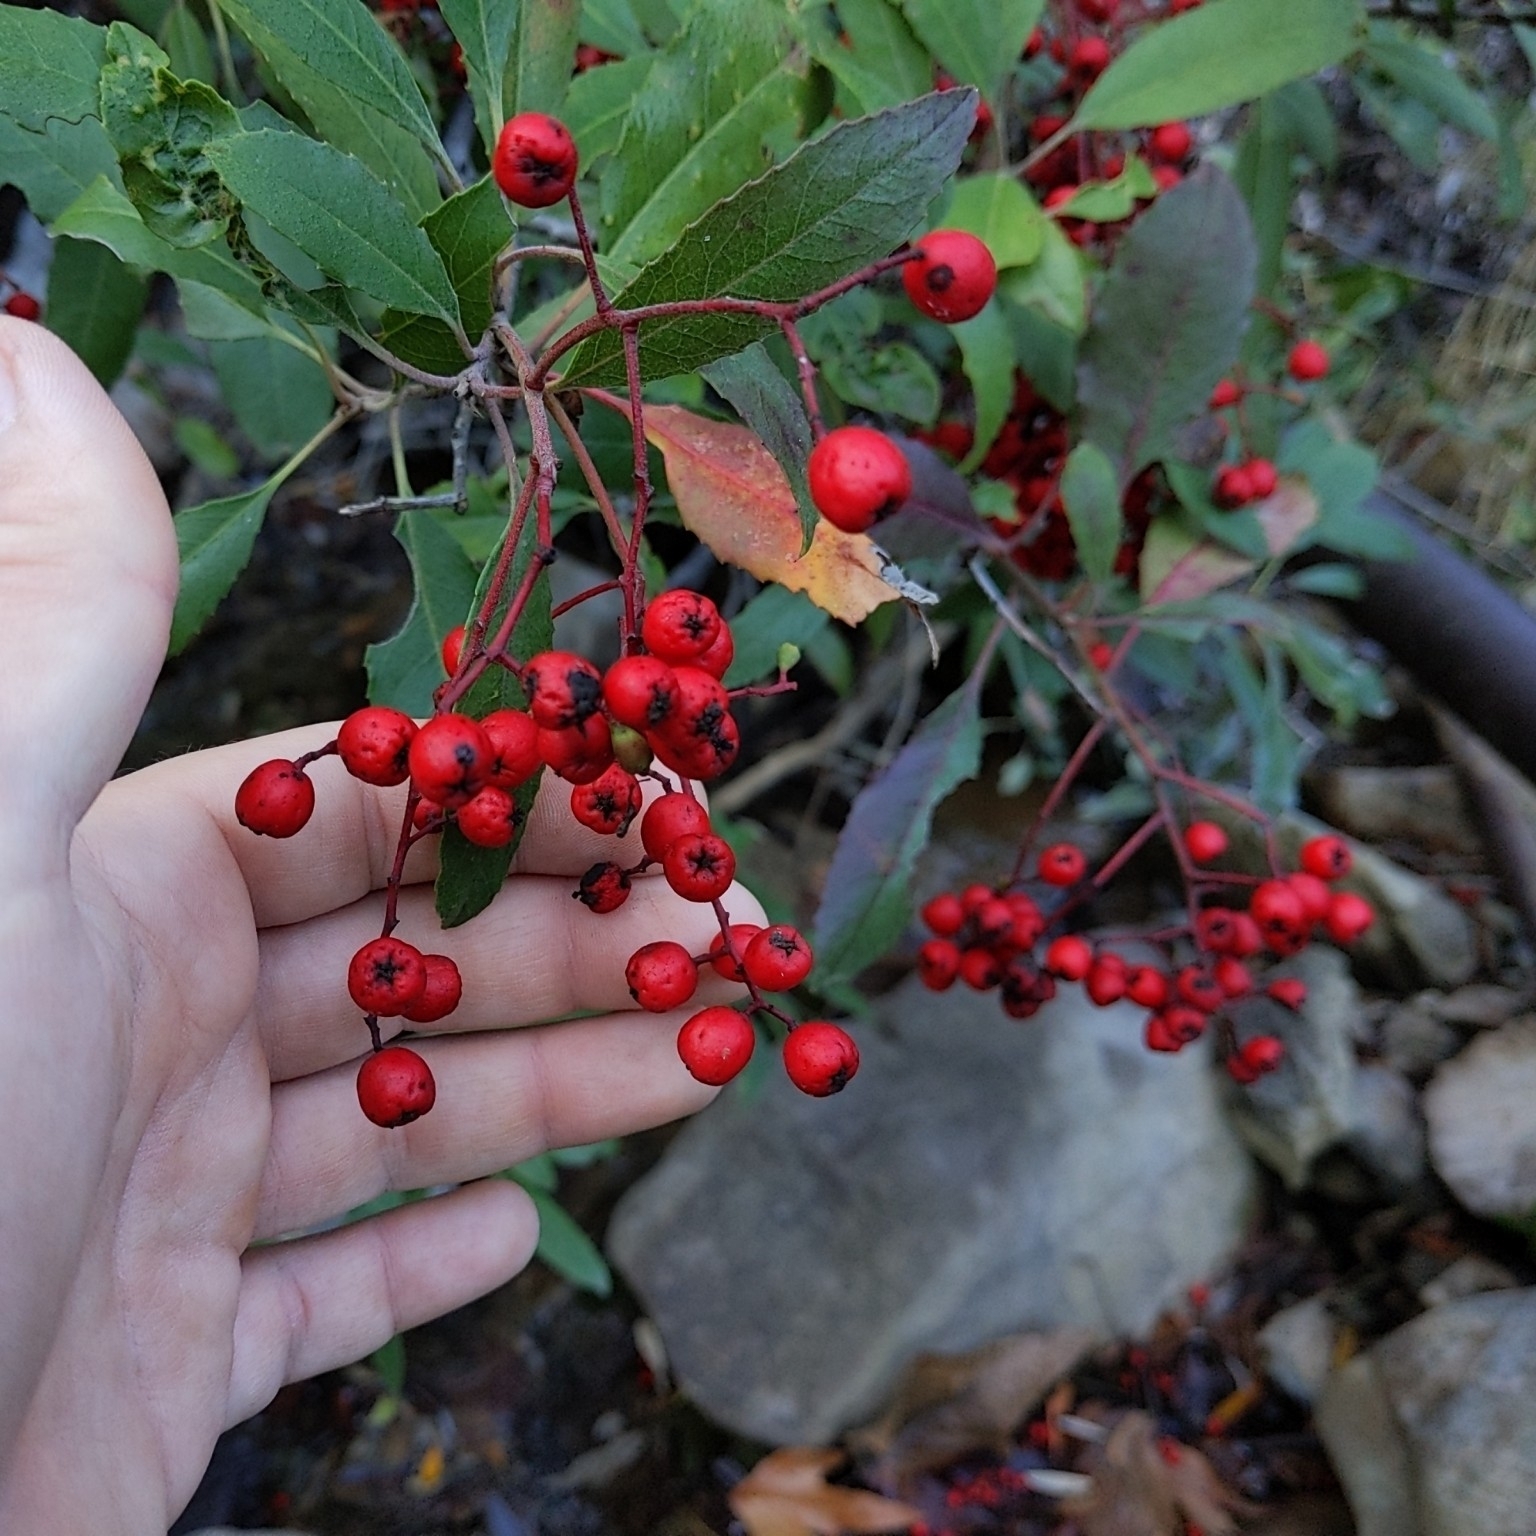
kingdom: Plantae
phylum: Tracheophyta
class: Magnoliopsida
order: Rosales
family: Rosaceae
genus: Heteromeles
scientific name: Heteromeles arbutifolia
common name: California-holly
